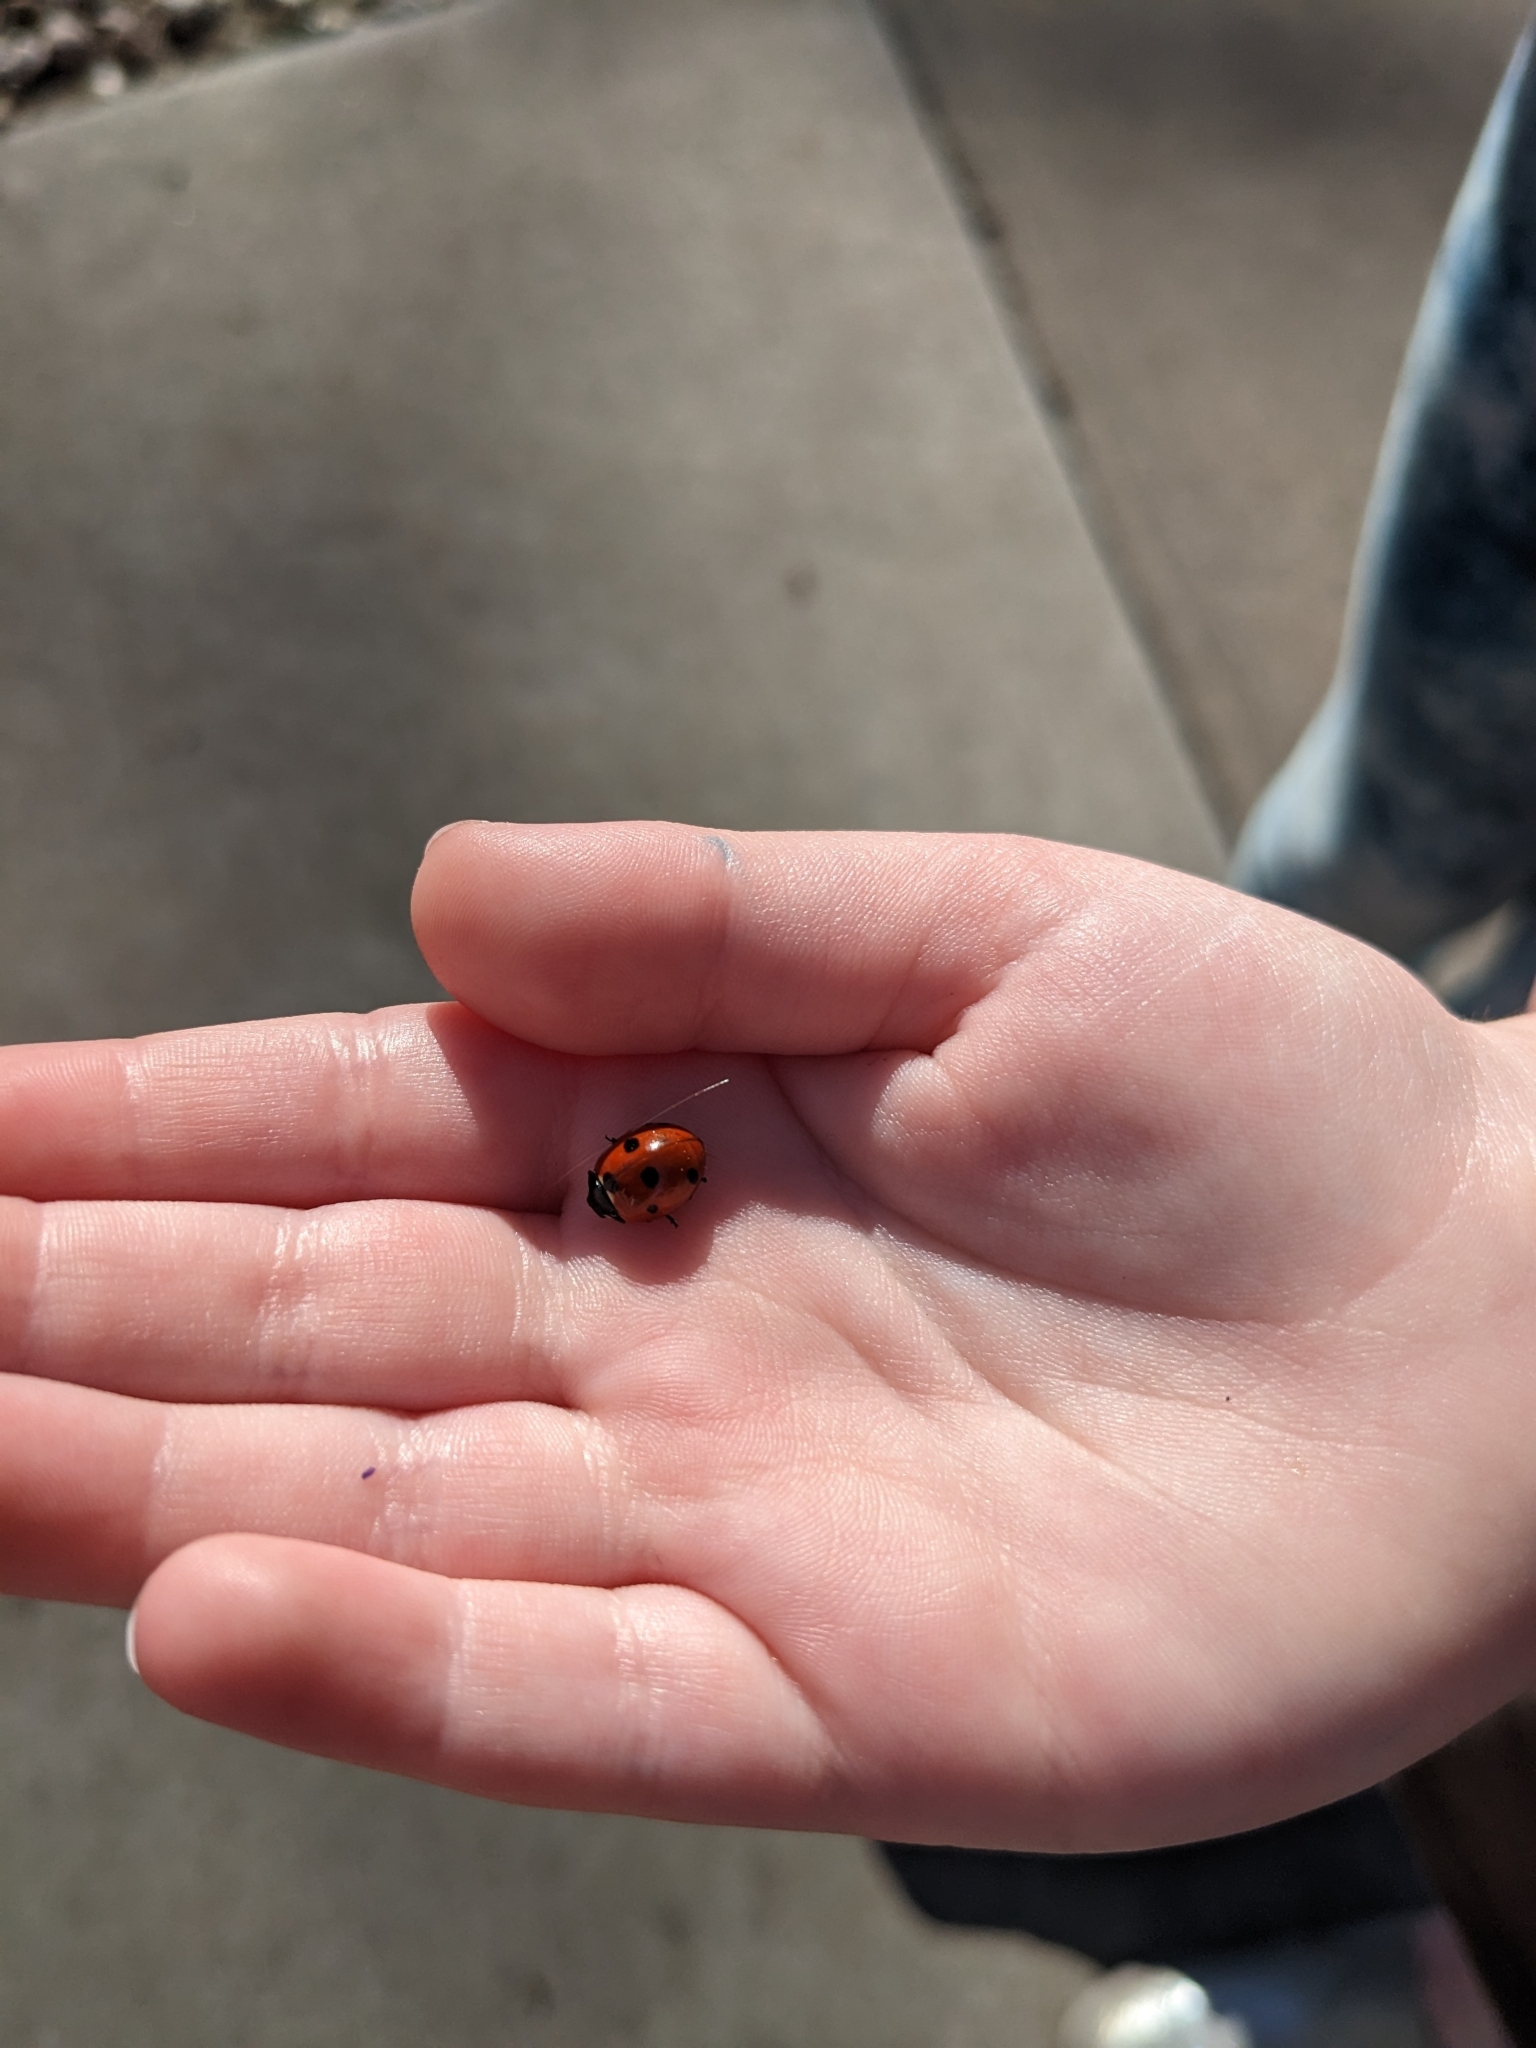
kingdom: Animalia
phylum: Arthropoda
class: Insecta
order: Coleoptera
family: Coccinellidae
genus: Coccinella
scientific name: Coccinella septempunctata
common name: Sevenspotted lady beetle
